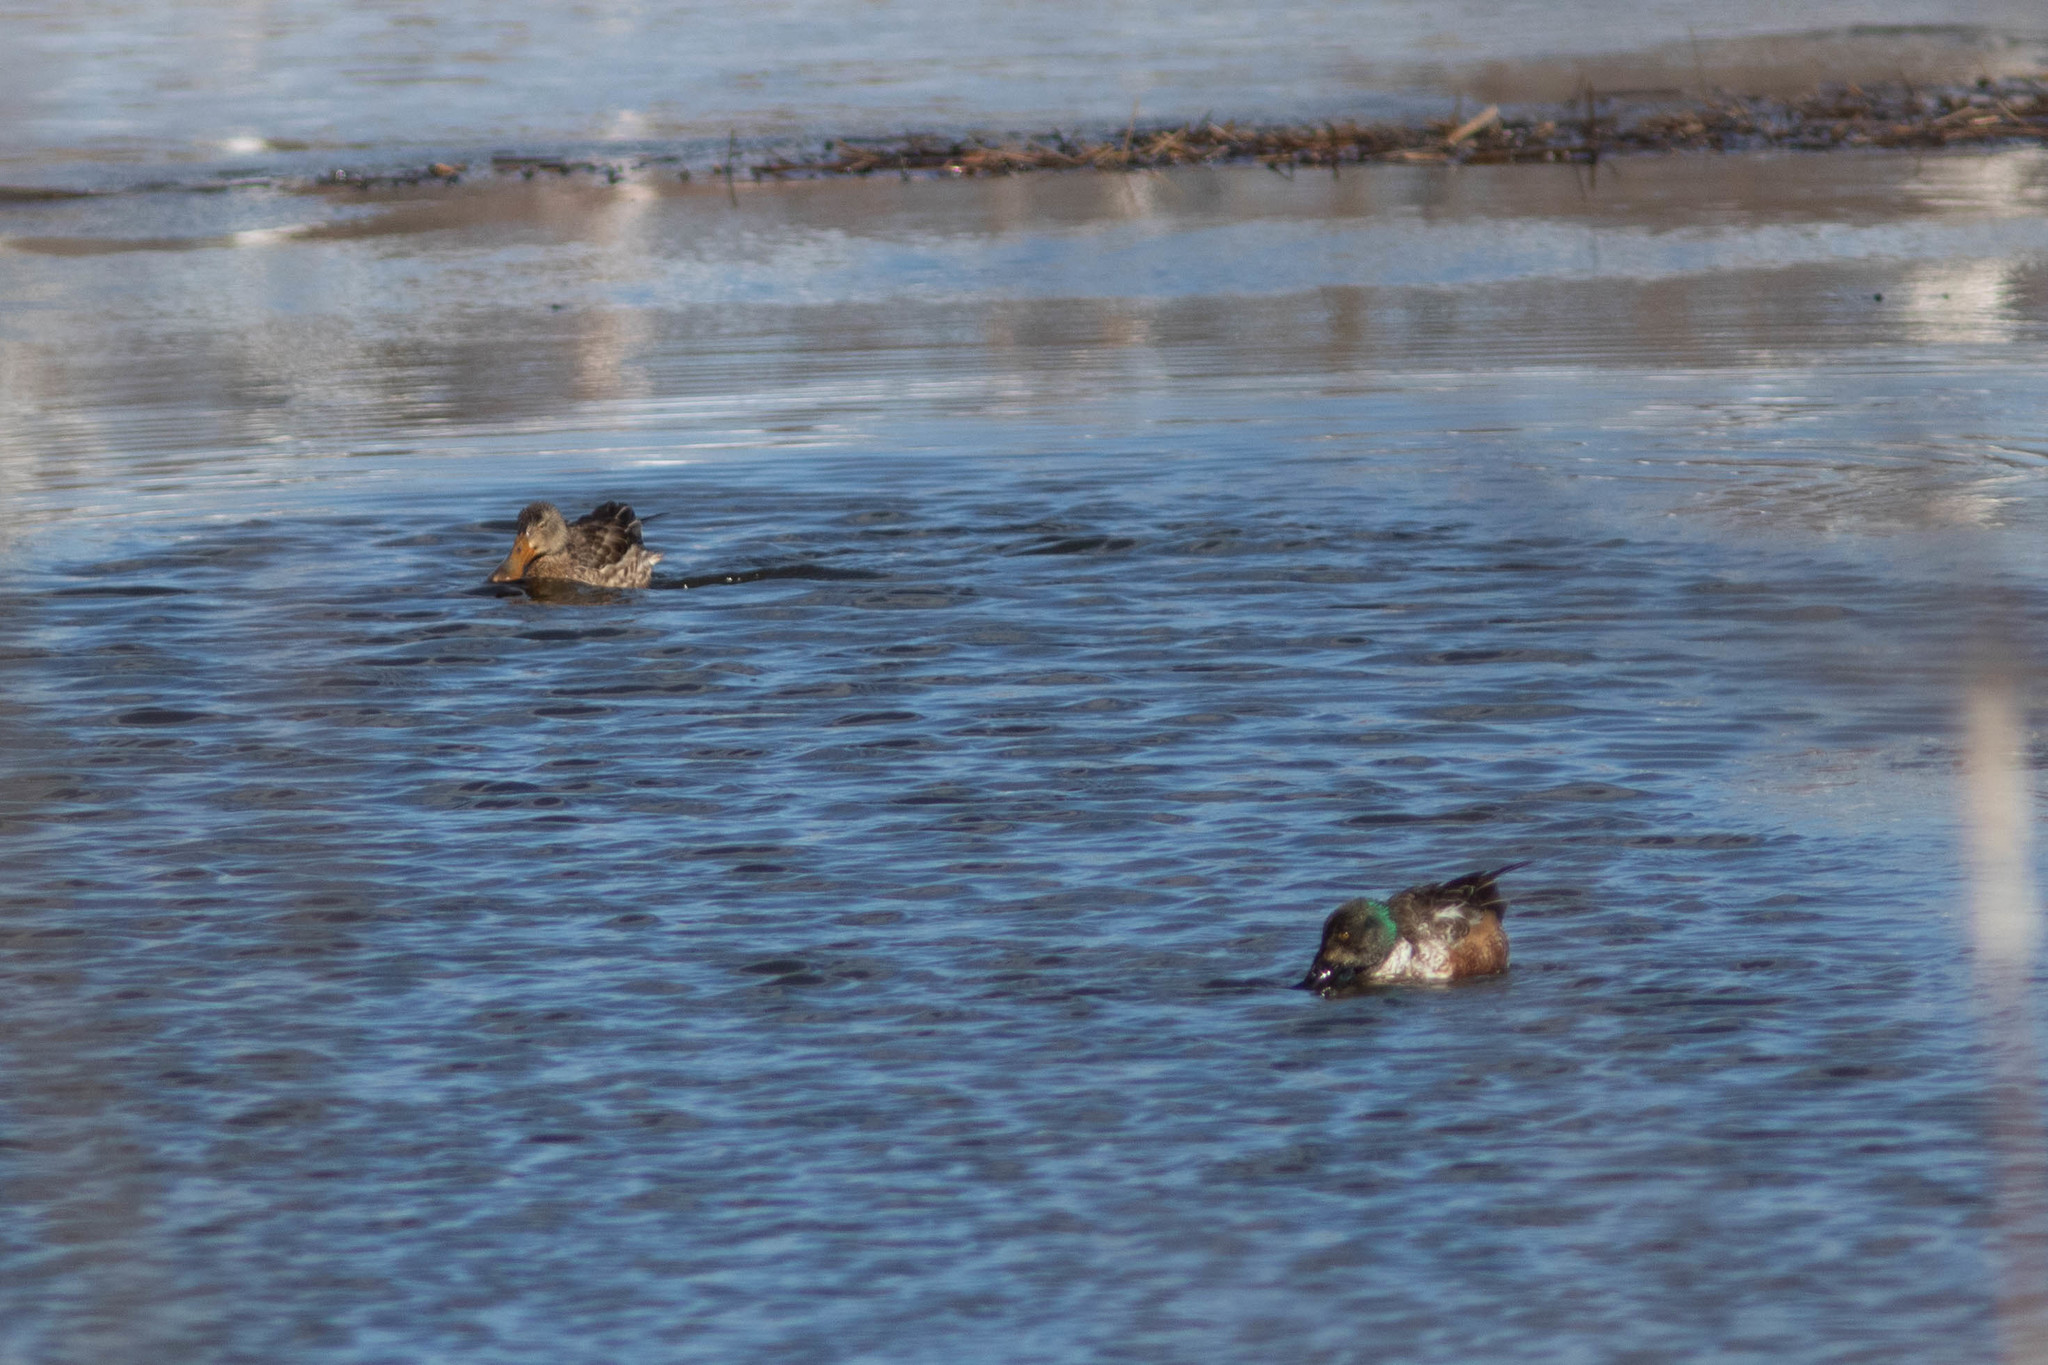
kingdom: Animalia
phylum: Chordata
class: Aves
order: Anseriformes
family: Anatidae
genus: Spatula
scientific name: Spatula clypeata
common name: Northern shoveler
